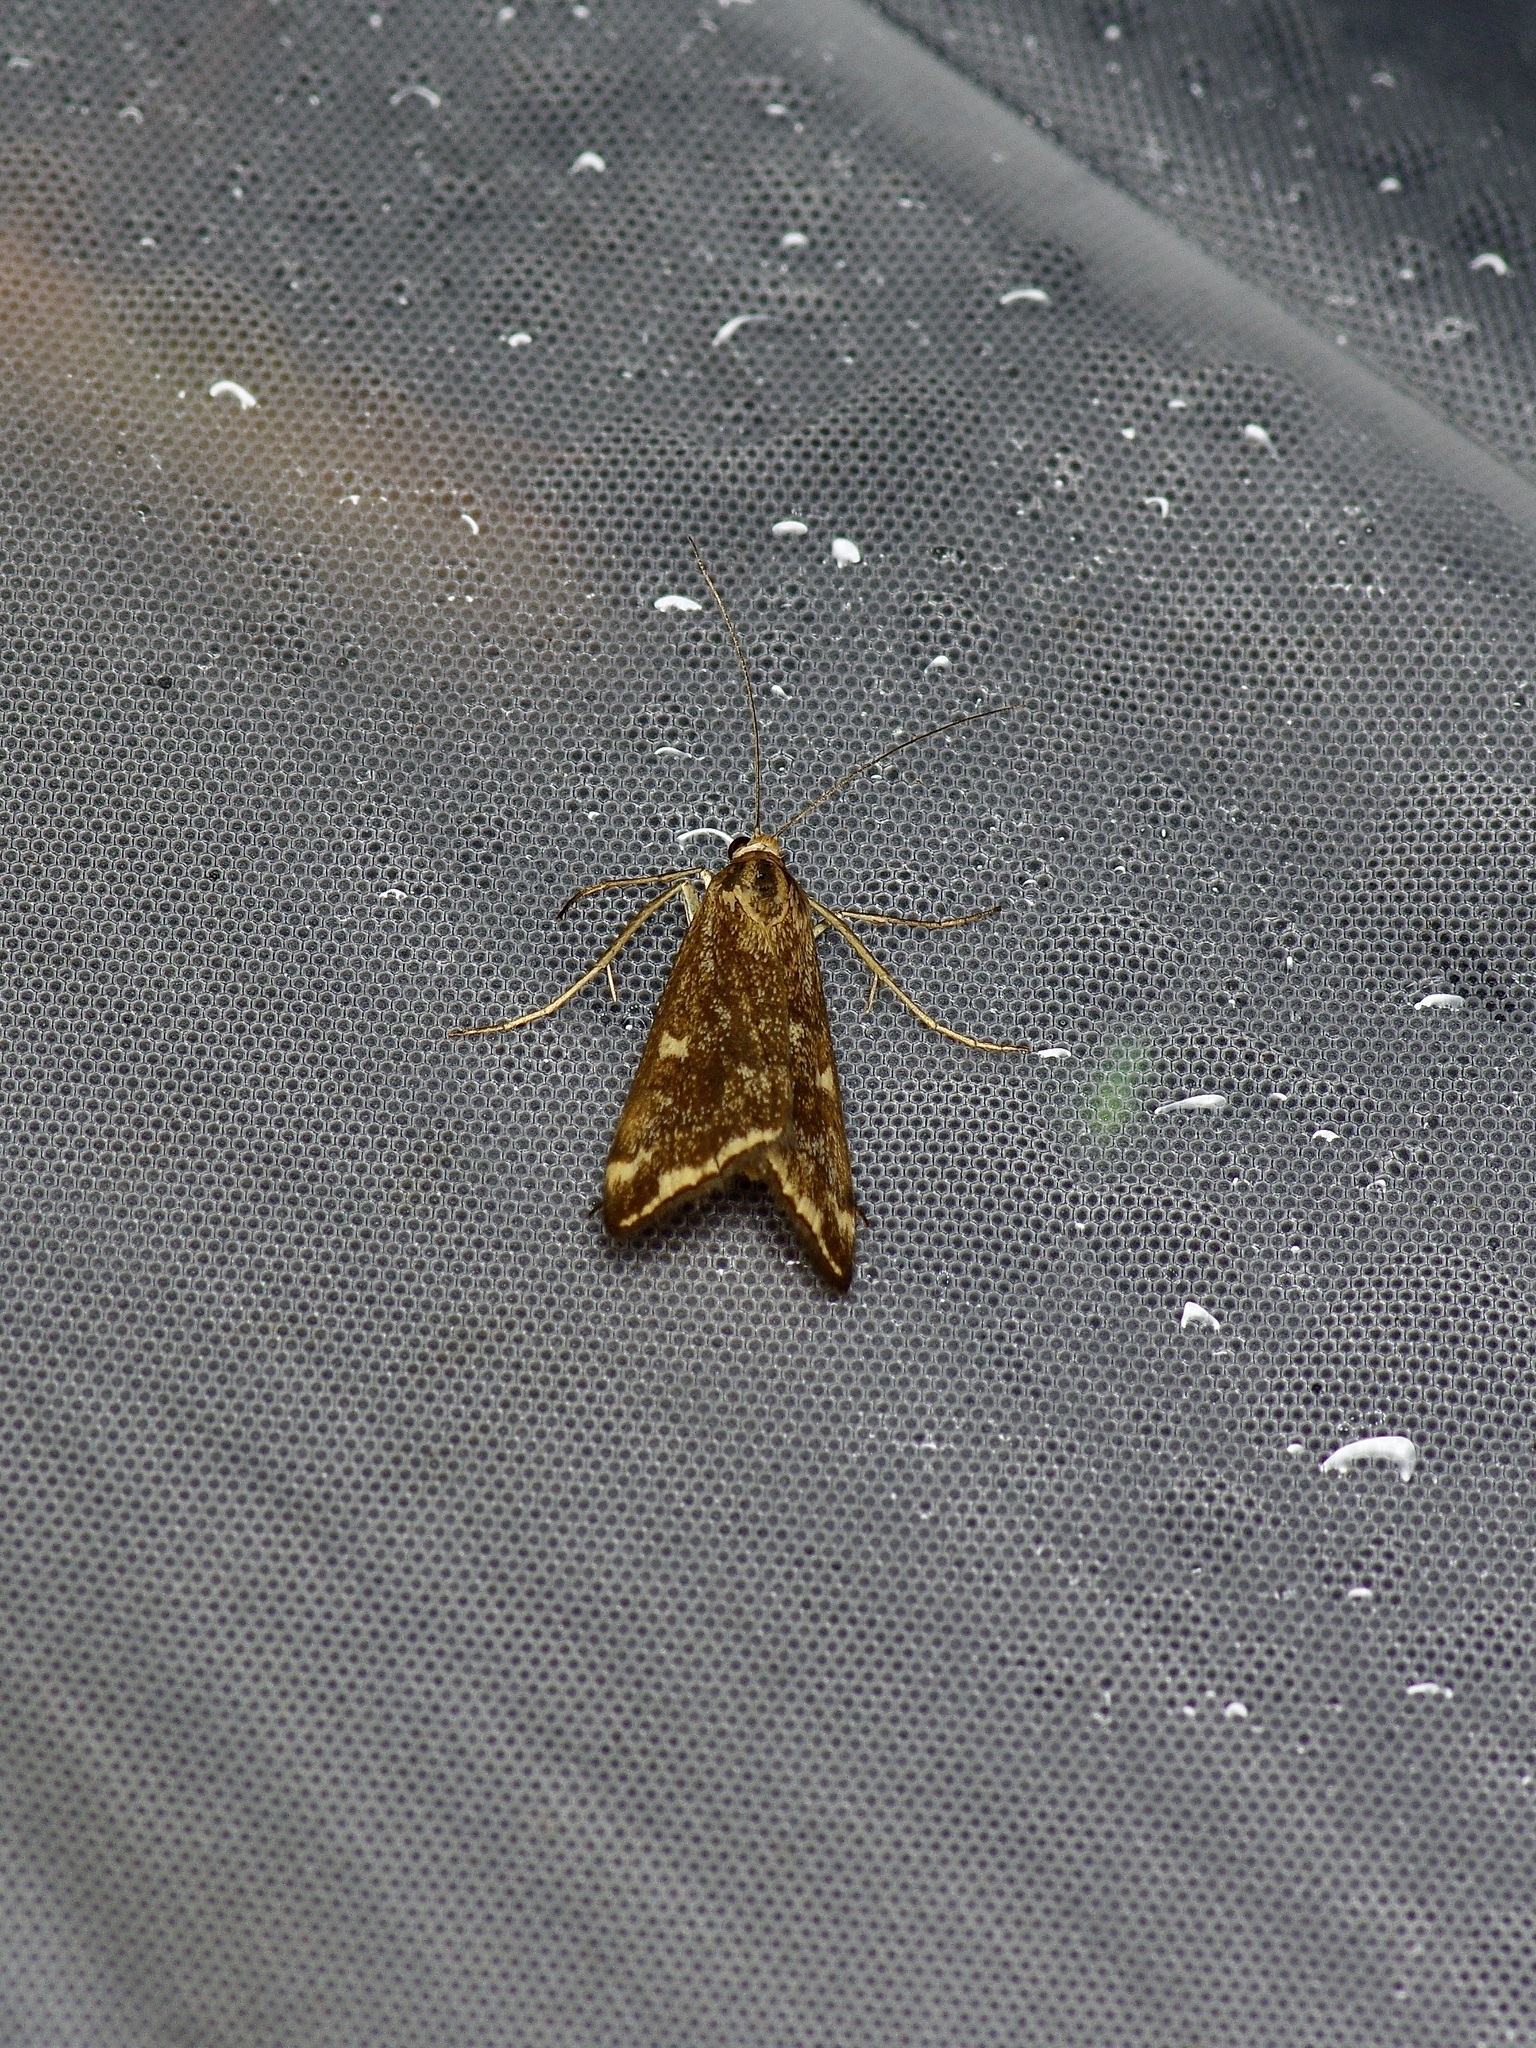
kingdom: Animalia
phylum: Arthropoda
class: Insecta
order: Lepidoptera
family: Crambidae
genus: Loxostege
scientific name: Loxostege
